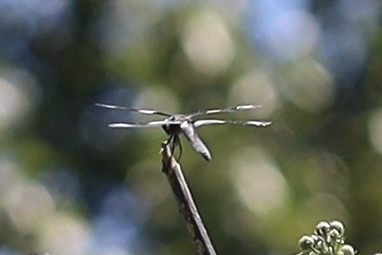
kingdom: Animalia
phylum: Arthropoda
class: Insecta
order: Odonata
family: Libellulidae
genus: Libellula
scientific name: Libellula forensis
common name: Eight-spotted skimmer
